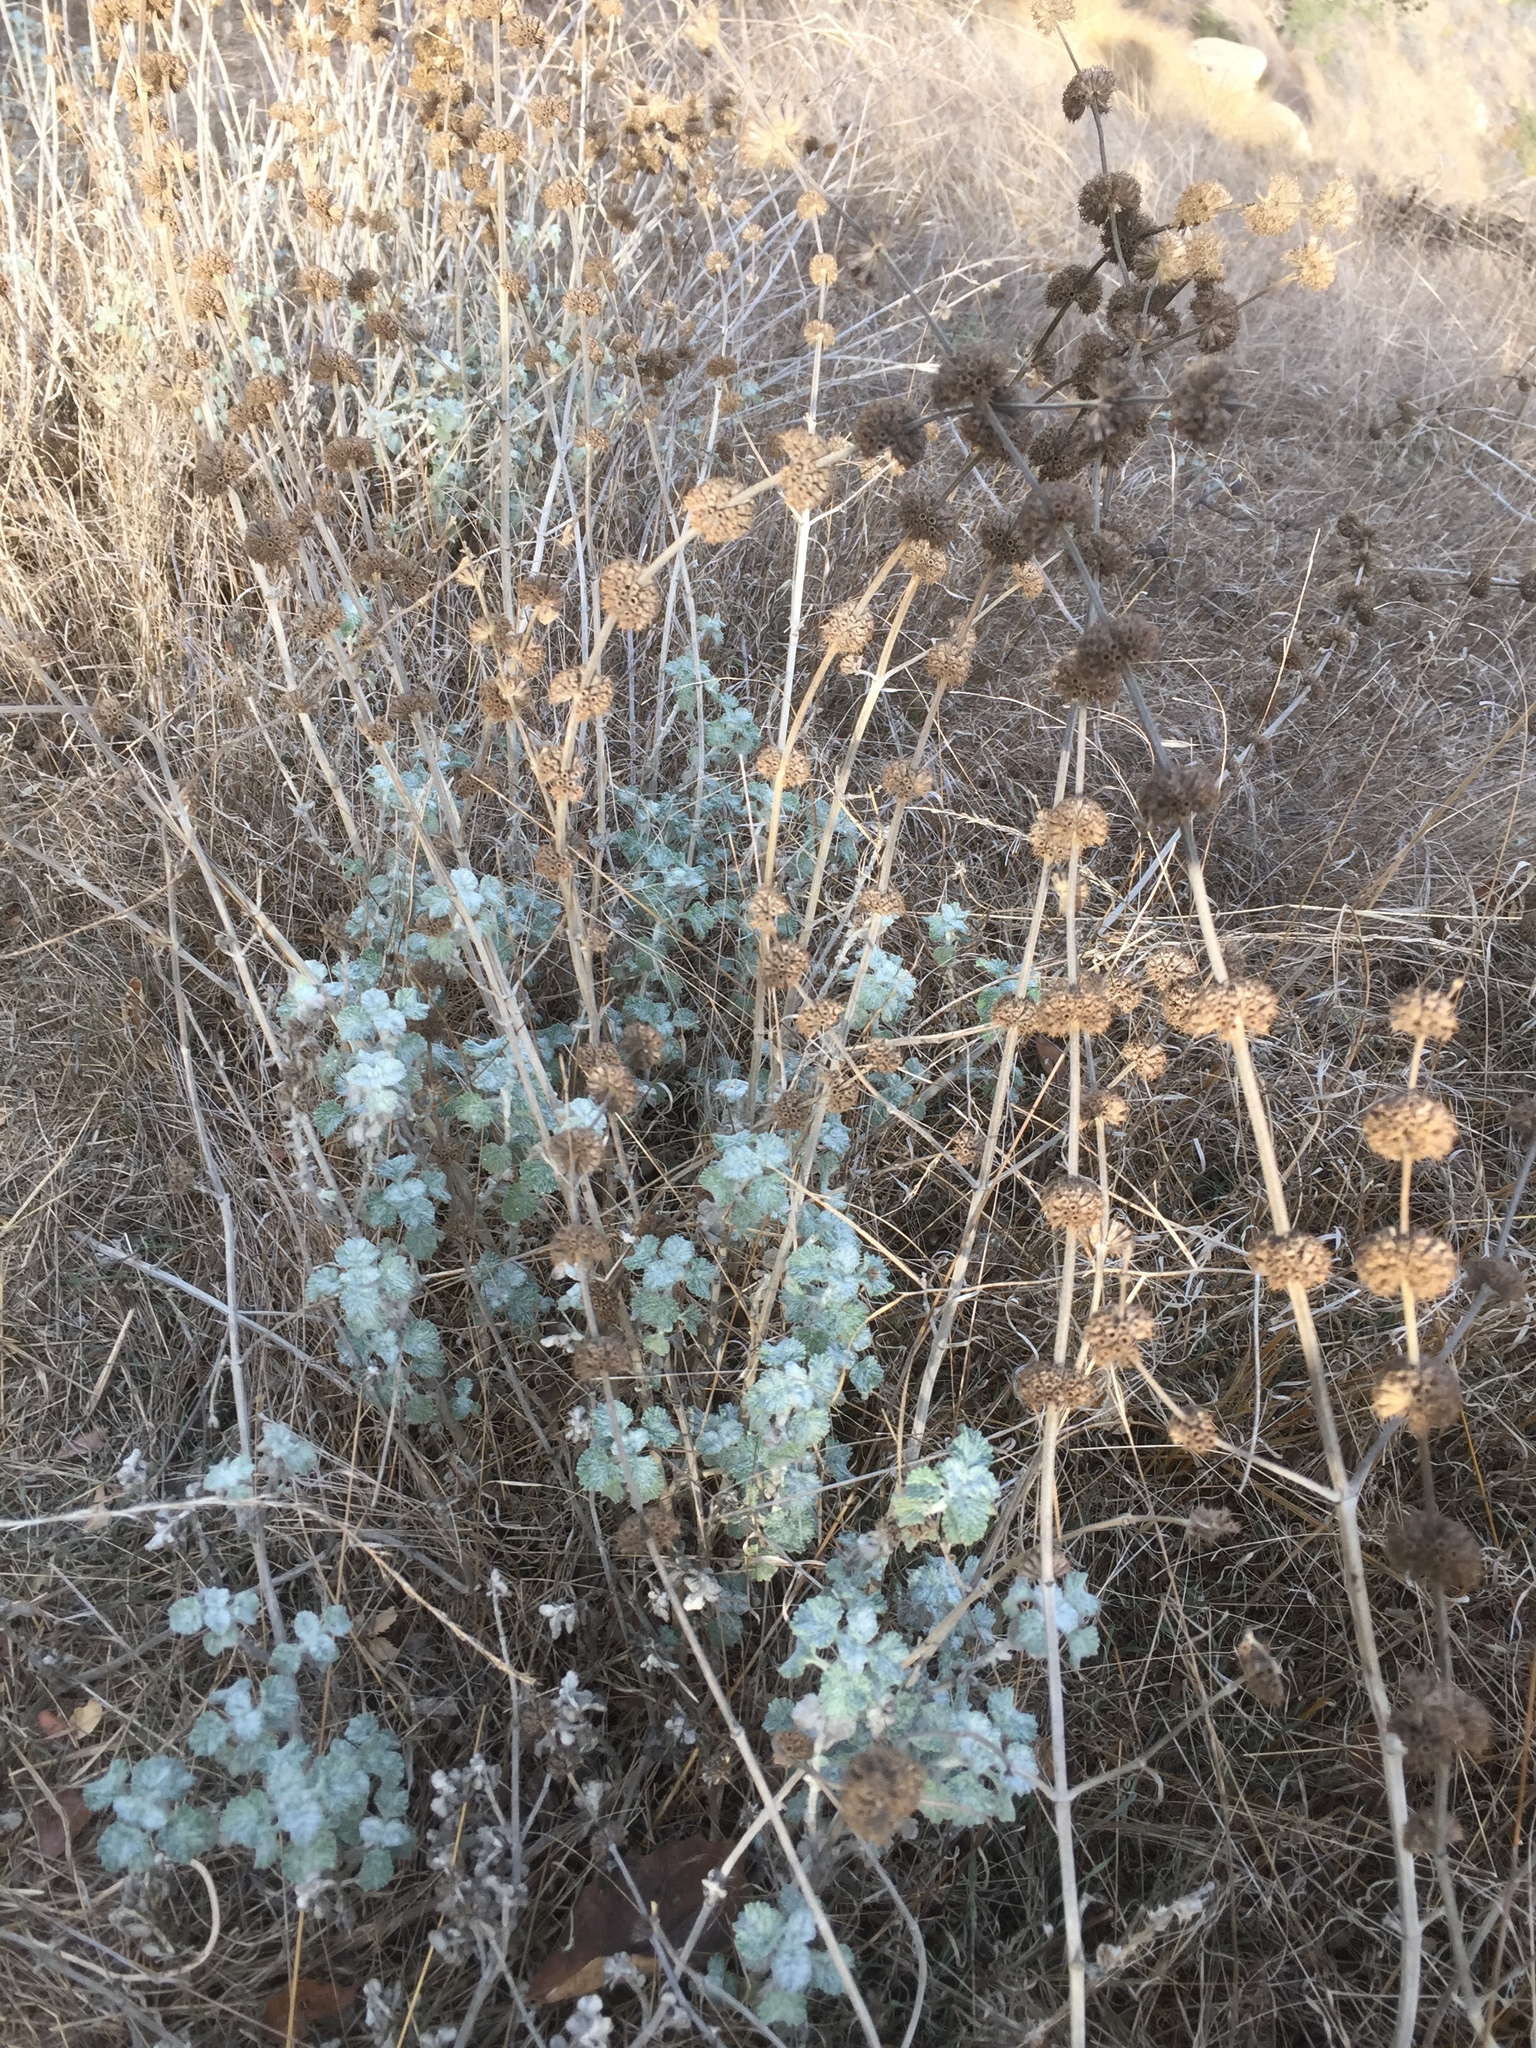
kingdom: Plantae
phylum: Tracheophyta
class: Magnoliopsida
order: Lamiales
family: Lamiaceae
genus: Marrubium
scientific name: Marrubium vulgare
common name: Horehound
